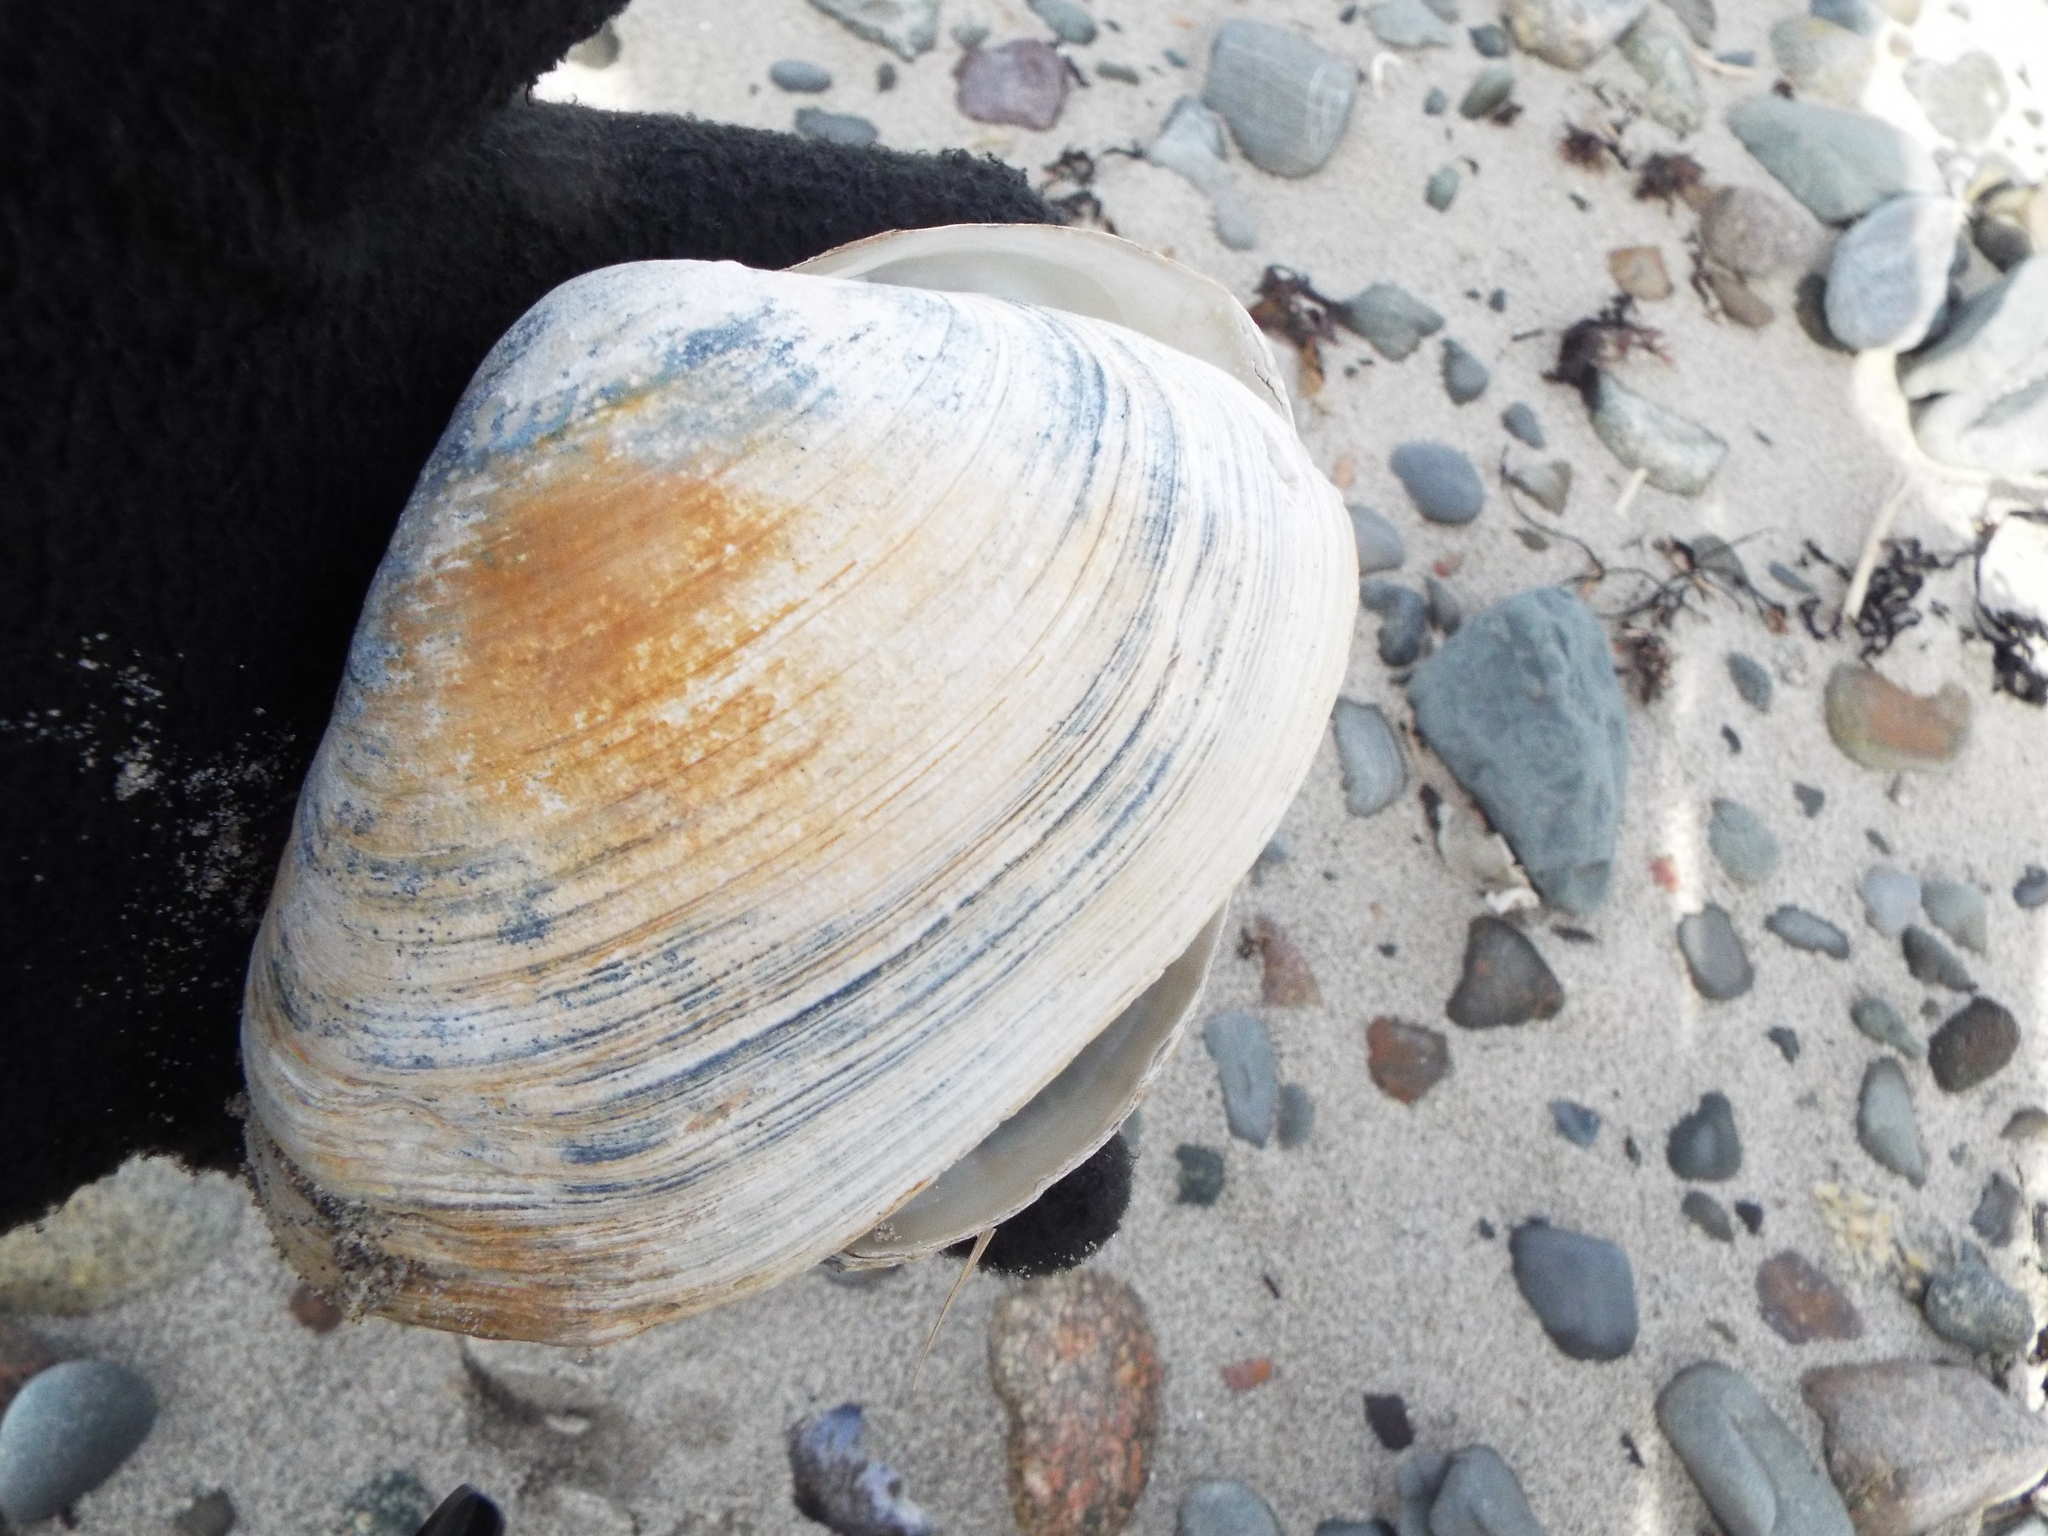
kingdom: Animalia
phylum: Mollusca
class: Bivalvia
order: Venerida
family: Mactridae
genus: Spisula
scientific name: Spisula solidissima
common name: Atlantic surf clam
